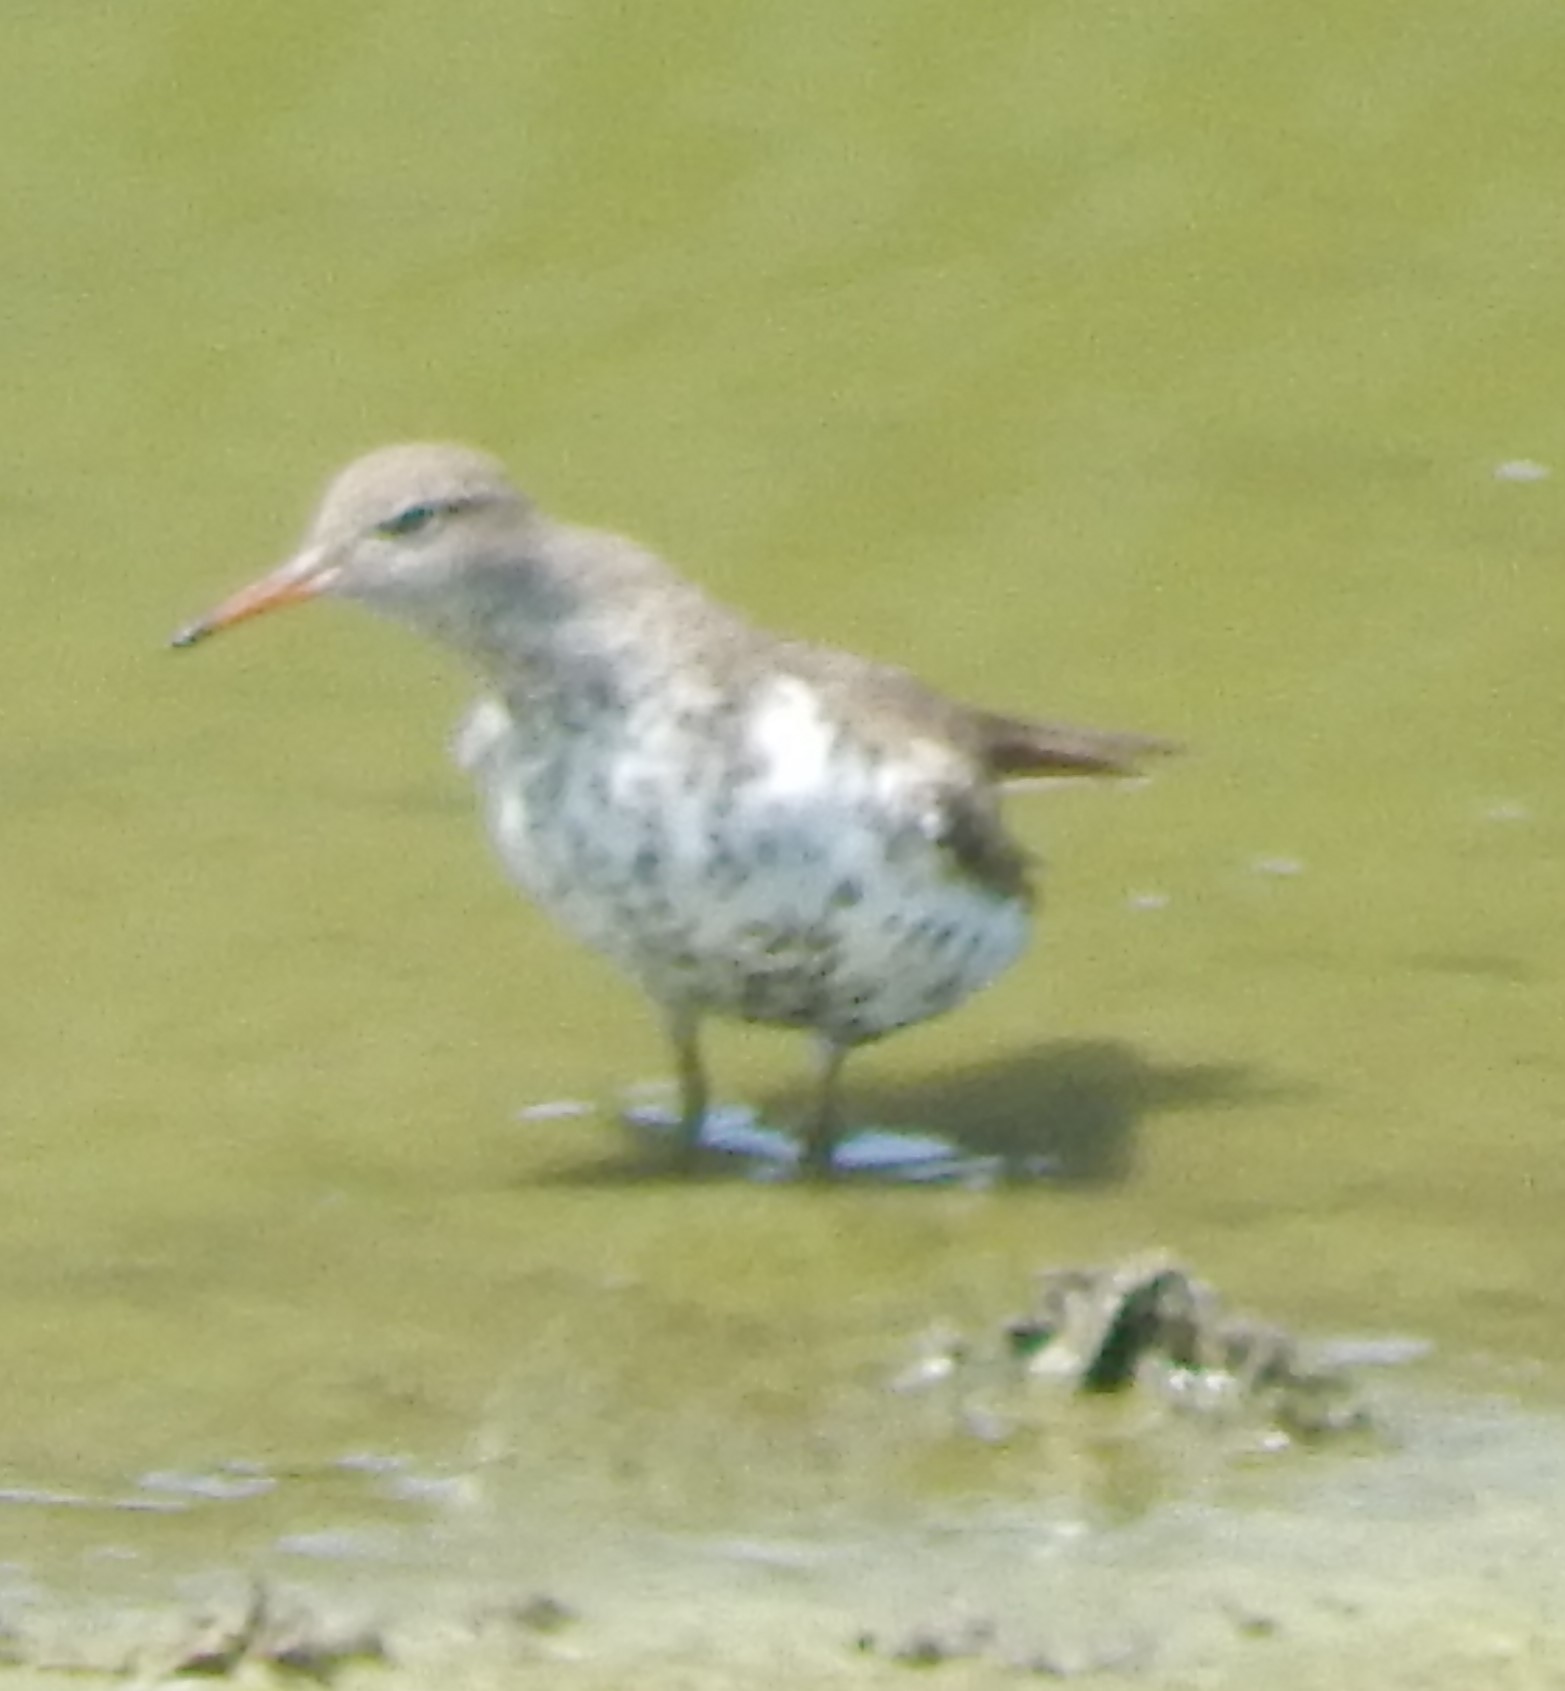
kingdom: Animalia
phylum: Chordata
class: Aves
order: Charadriiformes
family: Scolopacidae
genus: Actitis
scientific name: Actitis macularius
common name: Spotted sandpiper
